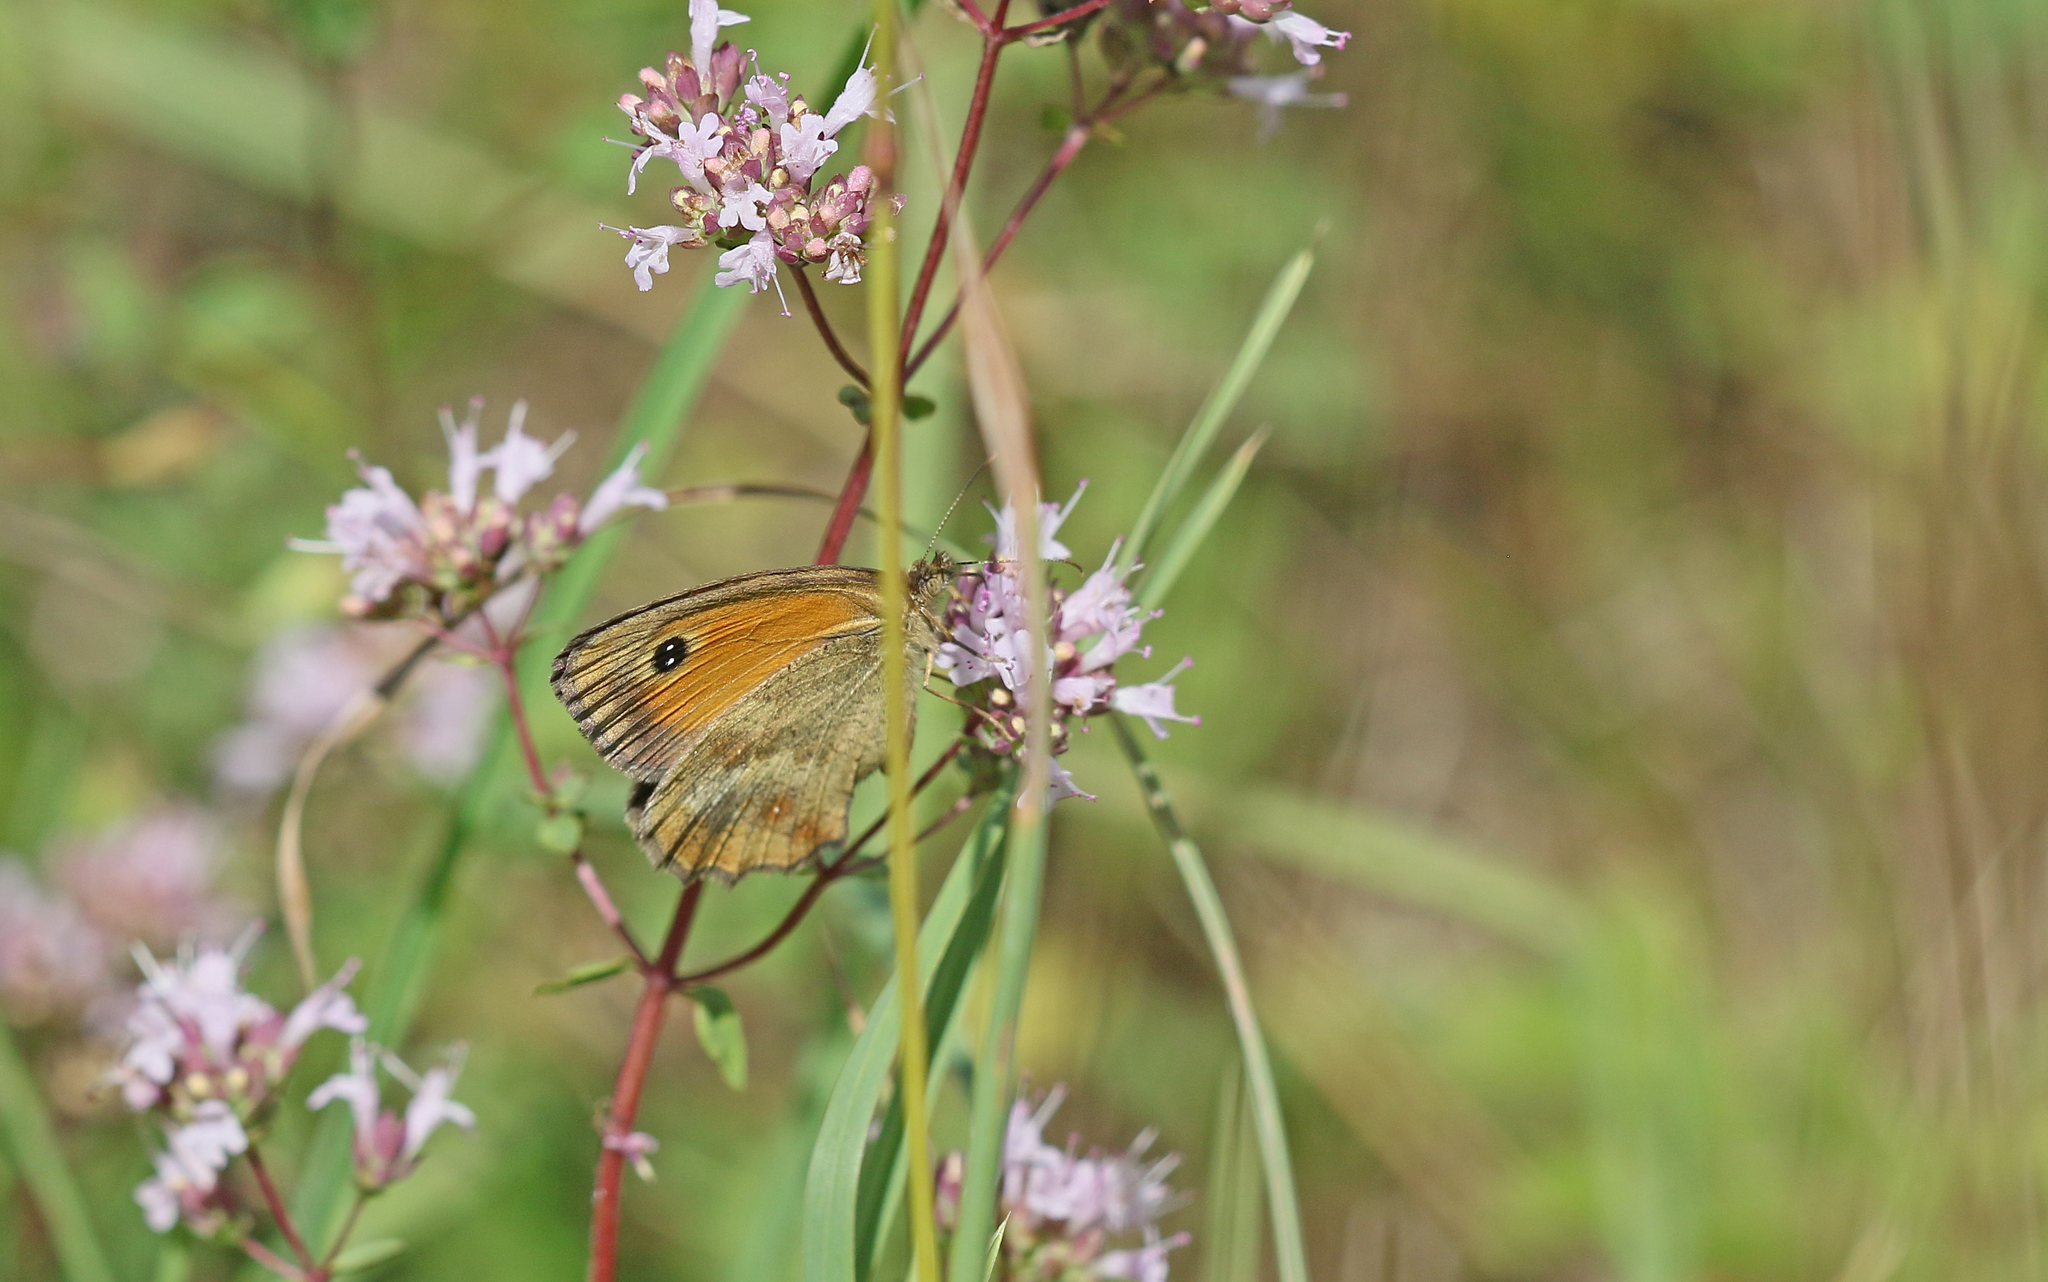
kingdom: Animalia
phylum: Arthropoda
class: Insecta
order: Lepidoptera
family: Nymphalidae
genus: Pyronia
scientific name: Pyronia tithonus
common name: Gatekeeper
